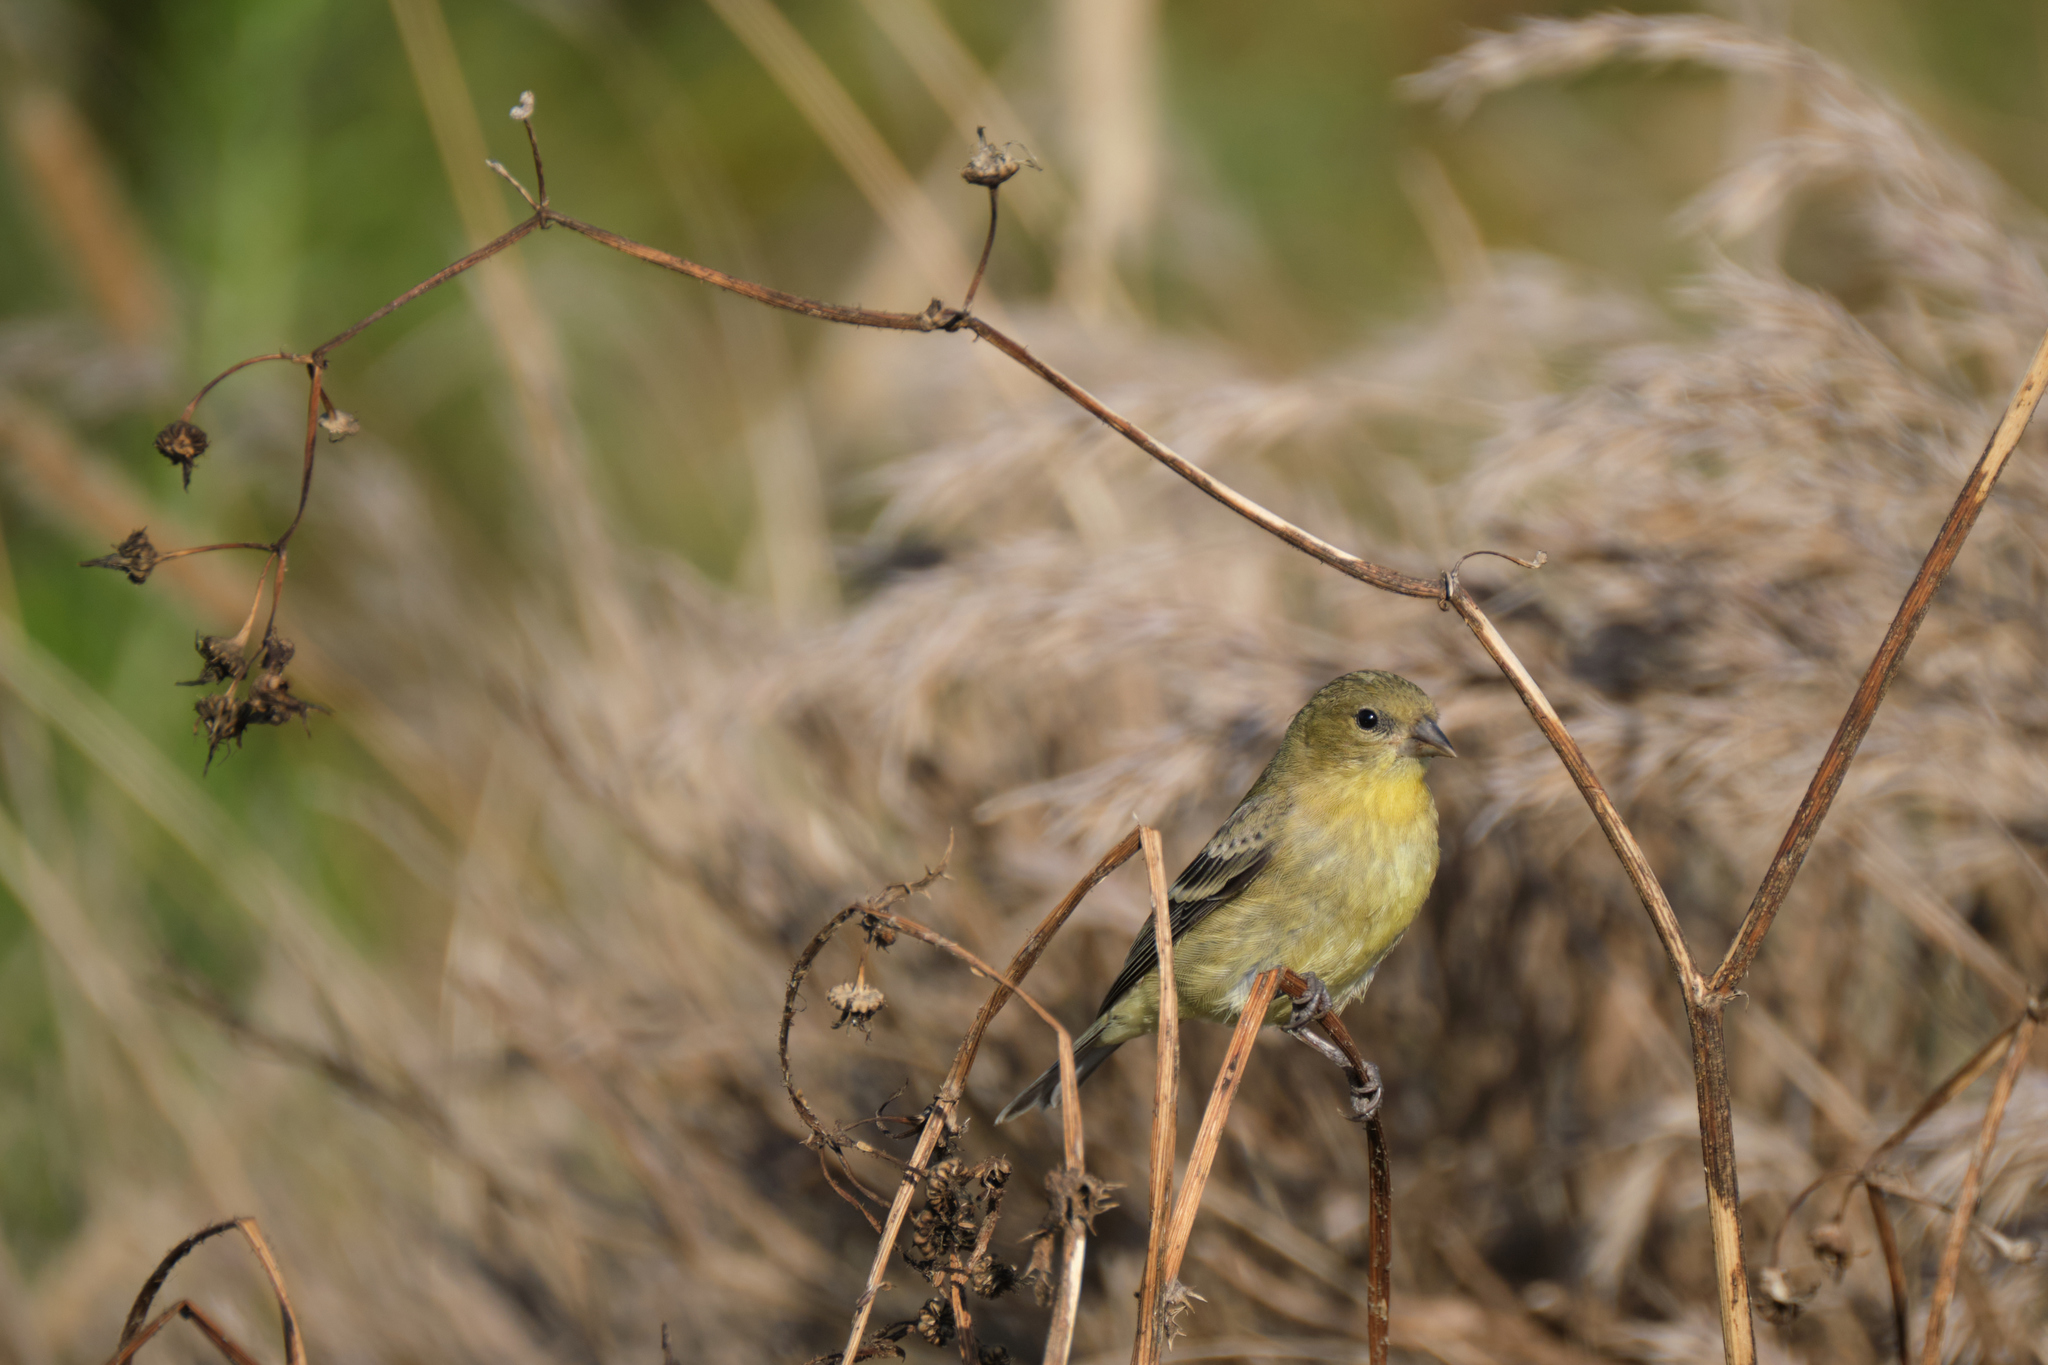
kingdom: Animalia
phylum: Chordata
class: Aves
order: Passeriformes
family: Fringillidae
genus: Spinus
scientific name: Spinus psaltria
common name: Lesser goldfinch
